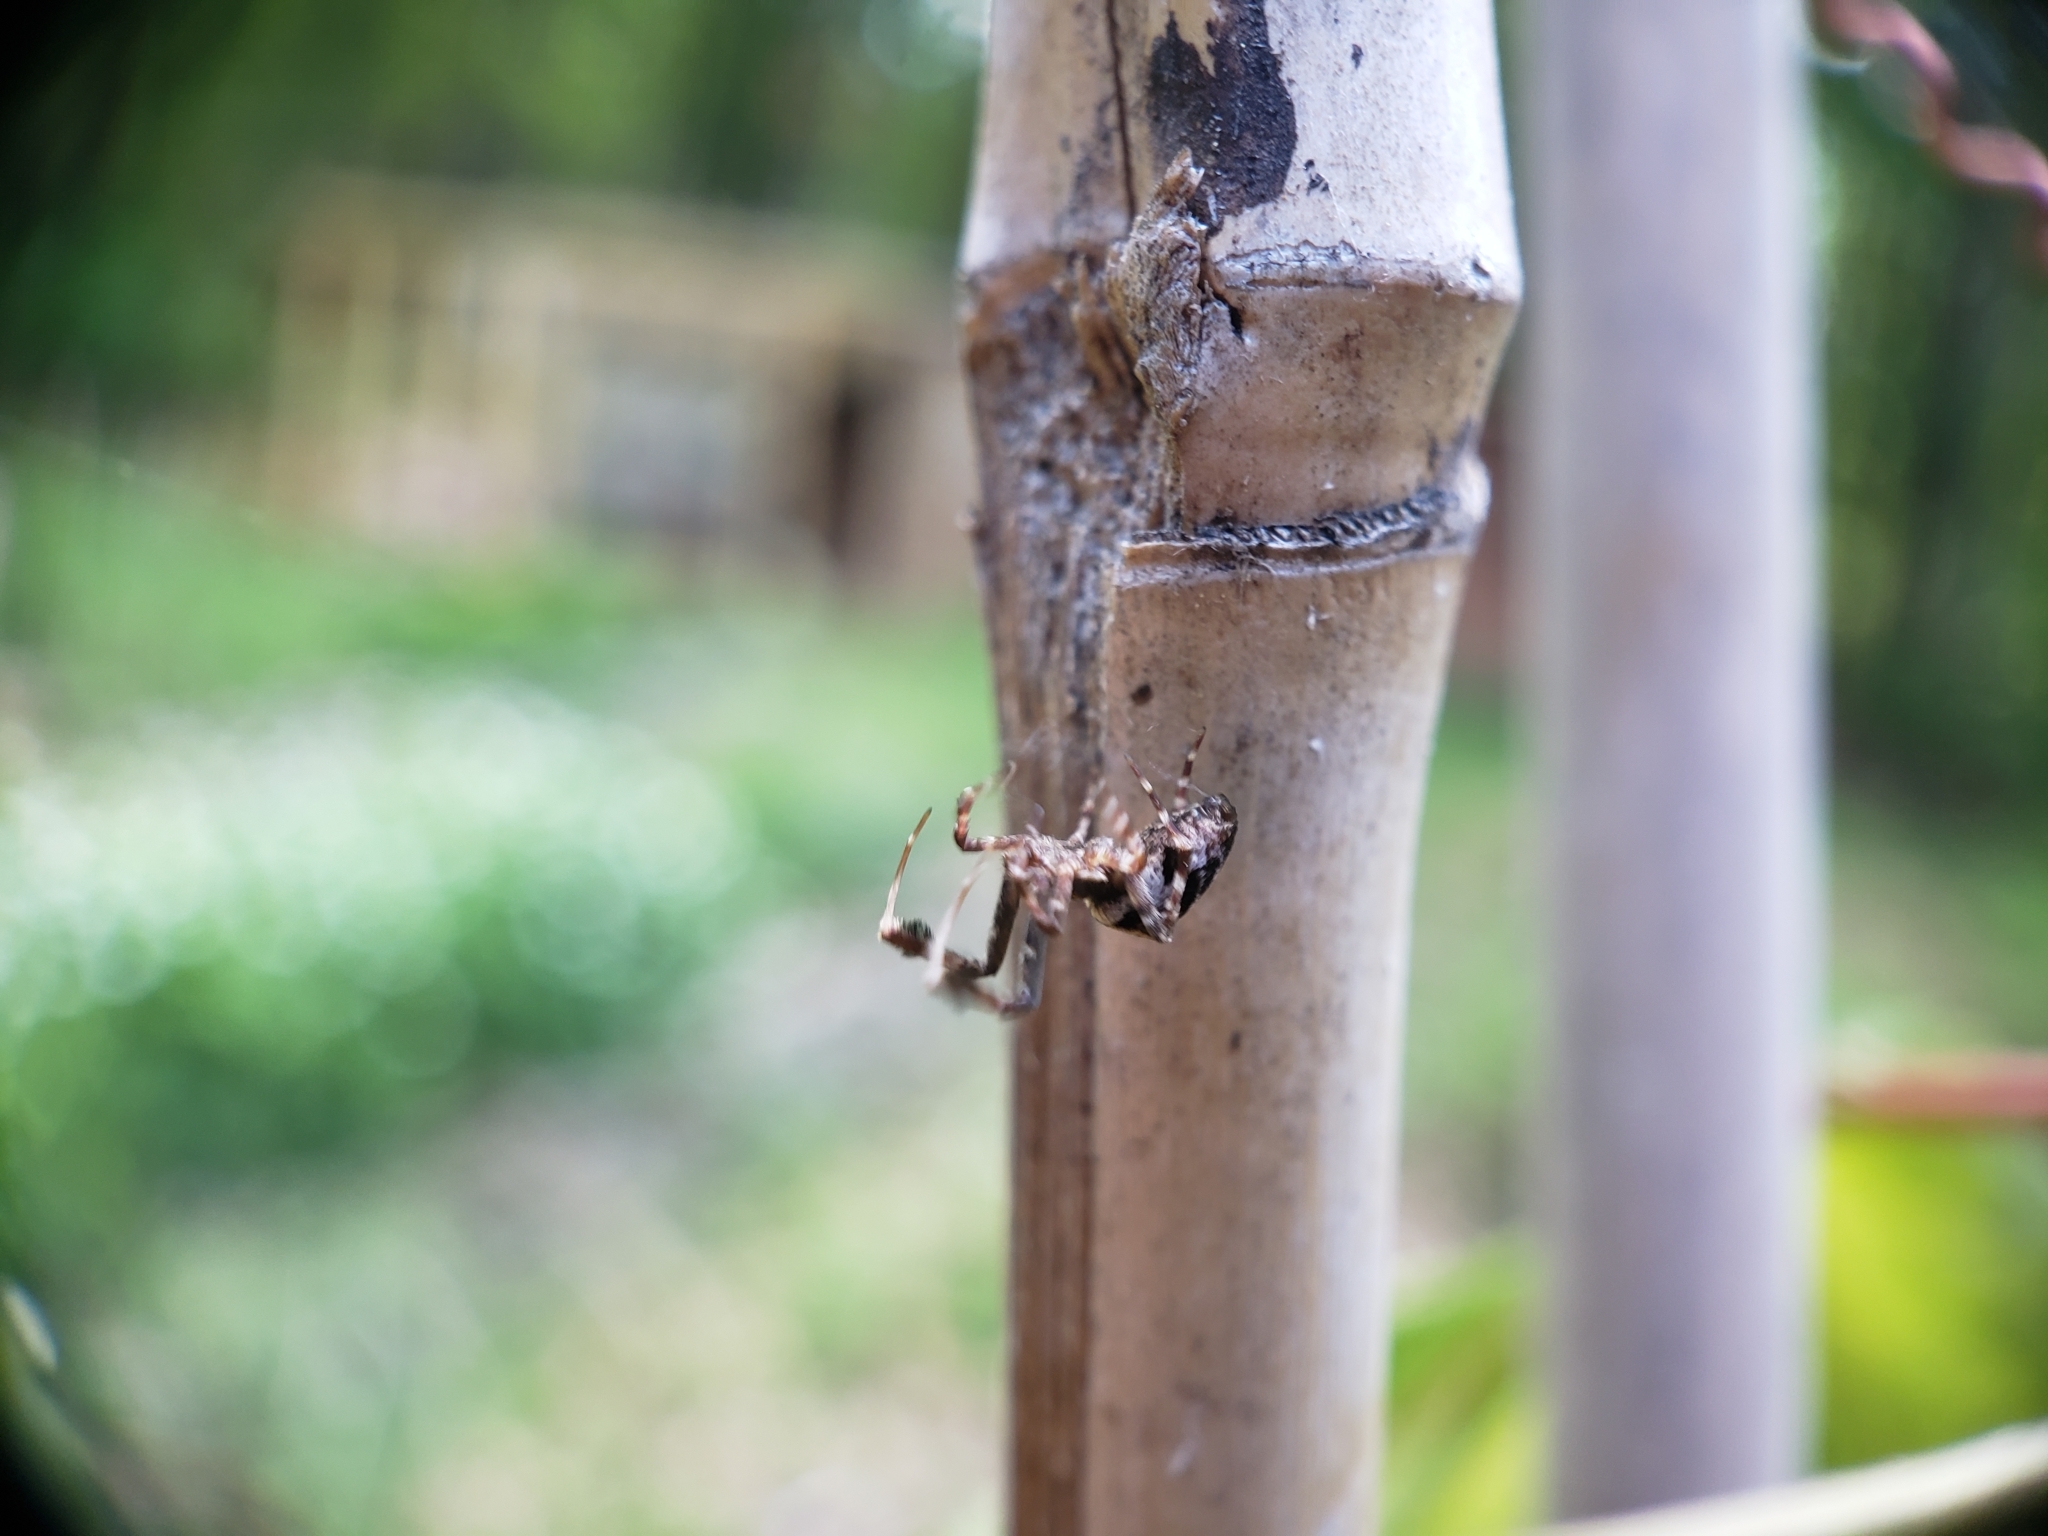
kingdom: Animalia
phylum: Arthropoda
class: Arachnida
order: Araneae
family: Uloboridae
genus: Uloborus
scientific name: Uloborus glomosus
